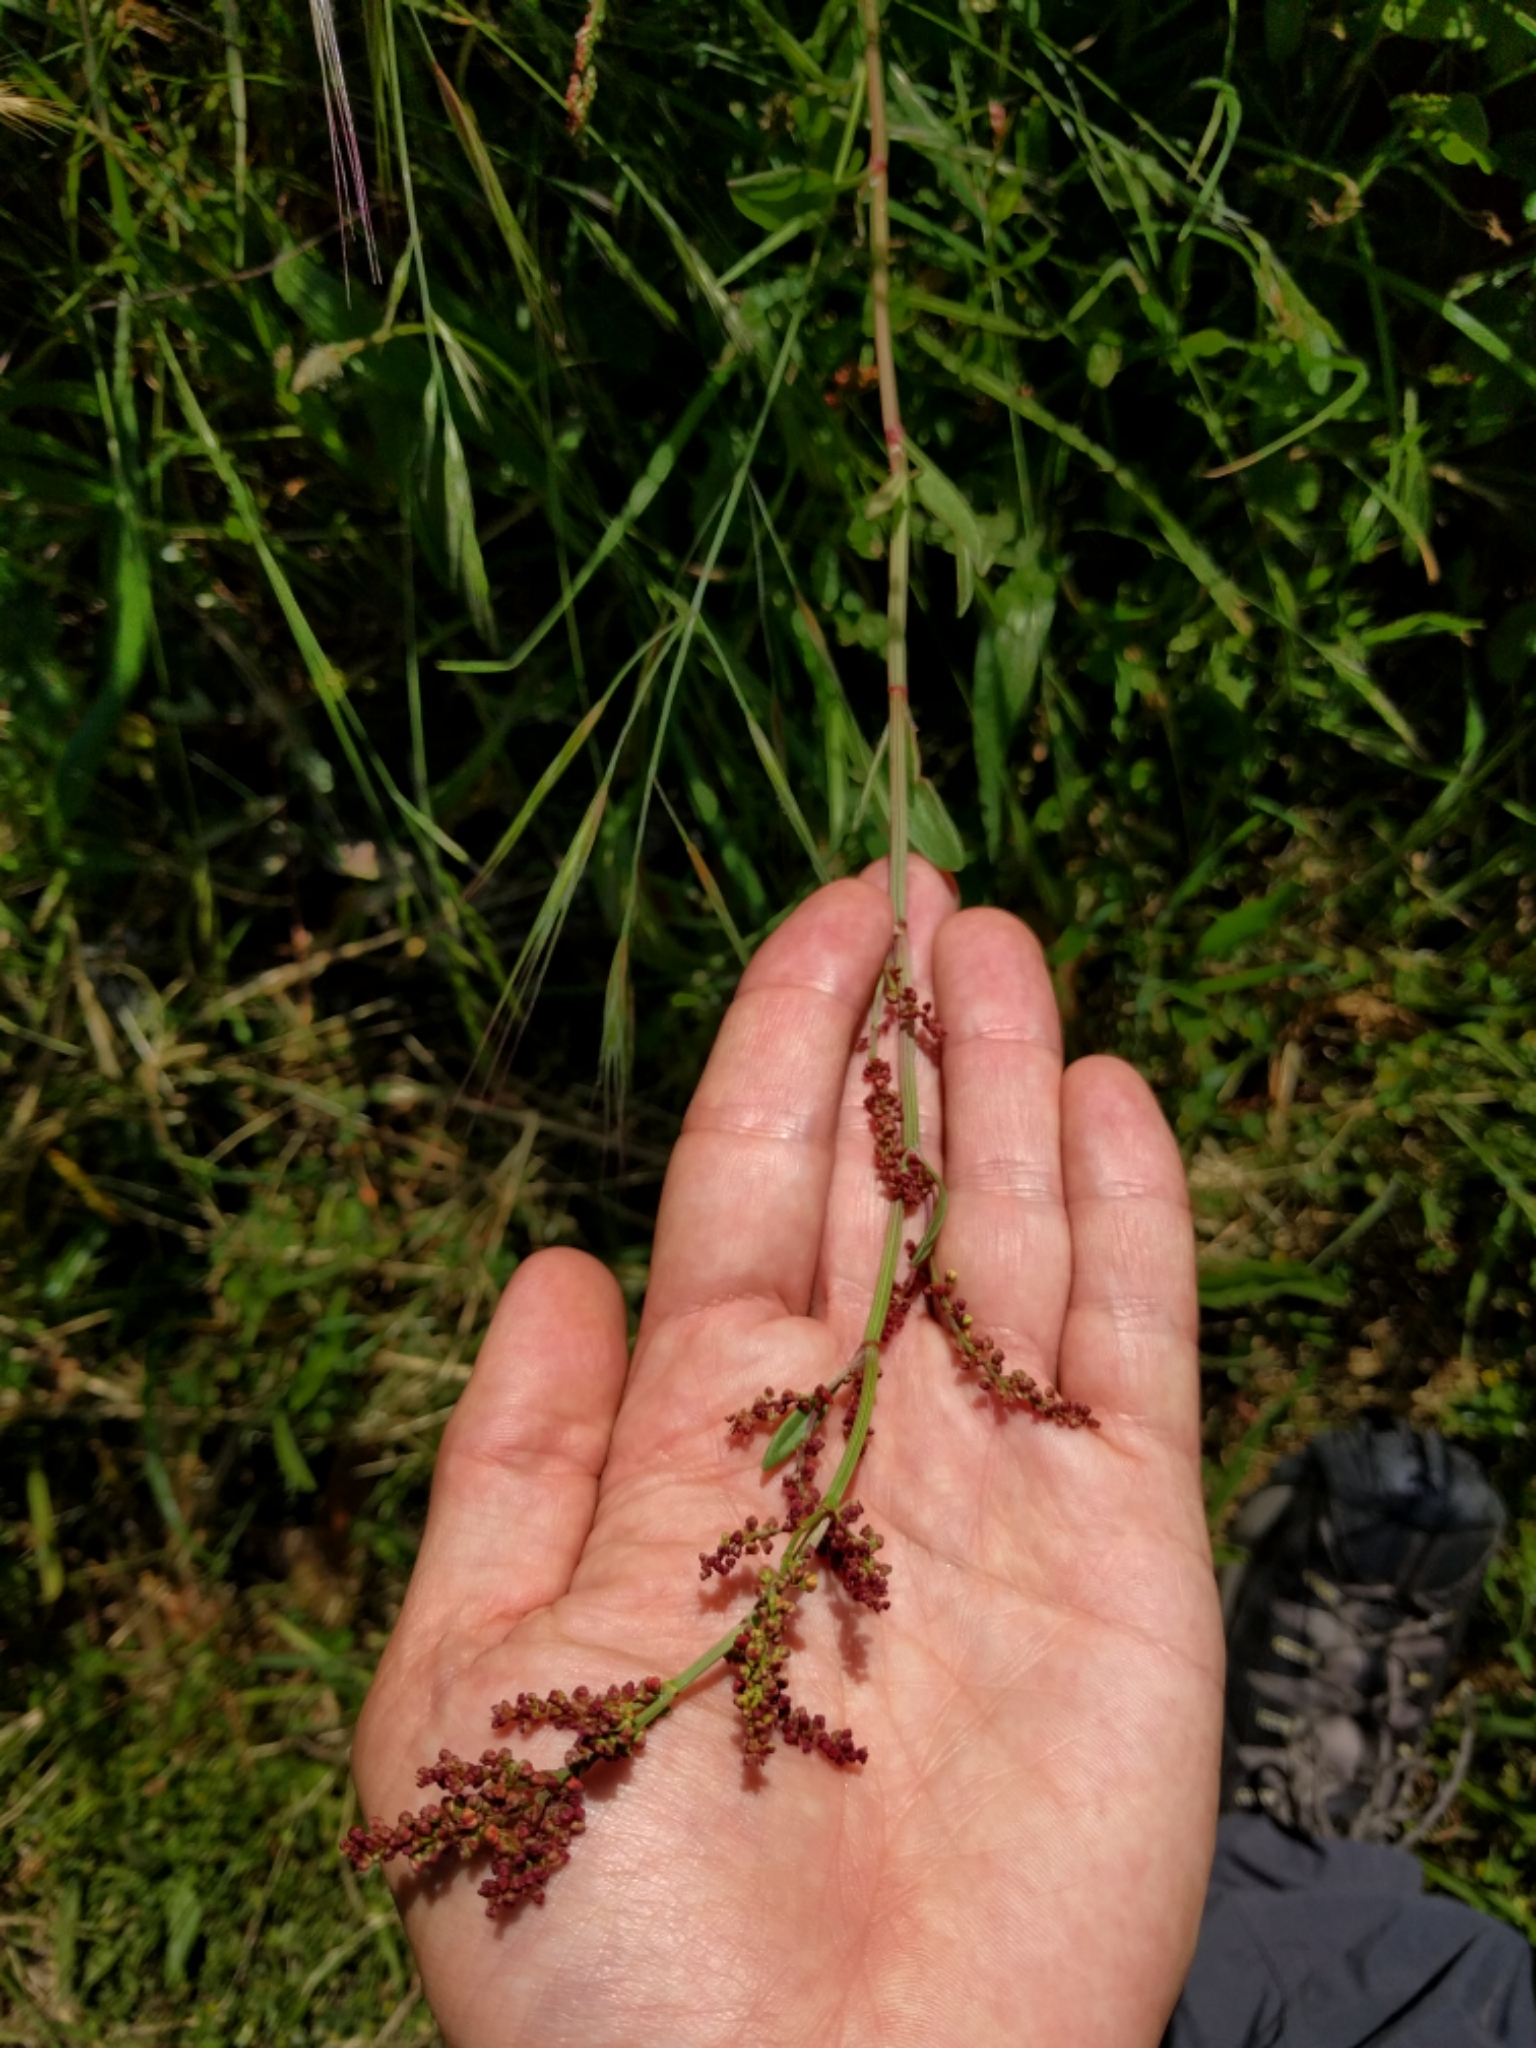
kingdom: Plantae
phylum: Tracheophyta
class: Magnoliopsida
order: Caryophyllales
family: Polygonaceae
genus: Rumex
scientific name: Rumex acetosella
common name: Common sheep sorrel
